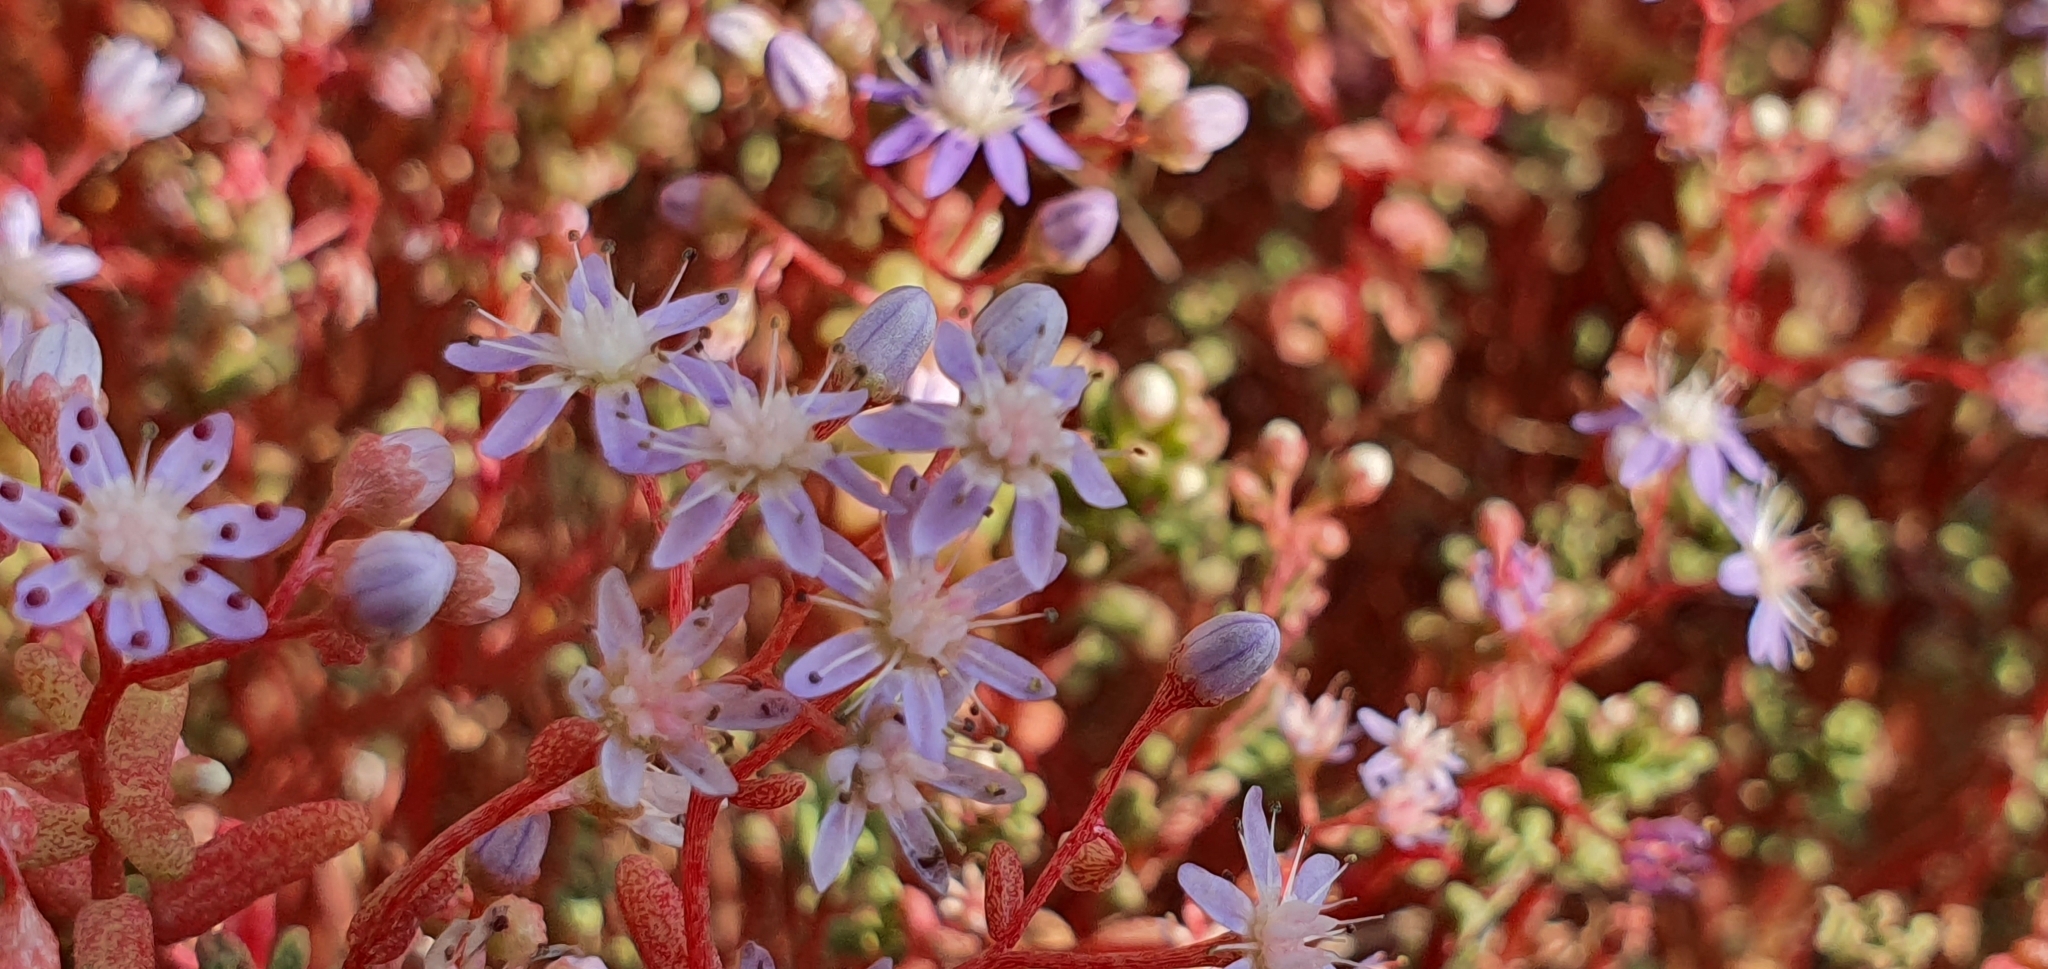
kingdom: Plantae
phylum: Tracheophyta
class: Magnoliopsida
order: Saxifragales
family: Crassulaceae
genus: Sedum
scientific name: Sedum caeruleum
